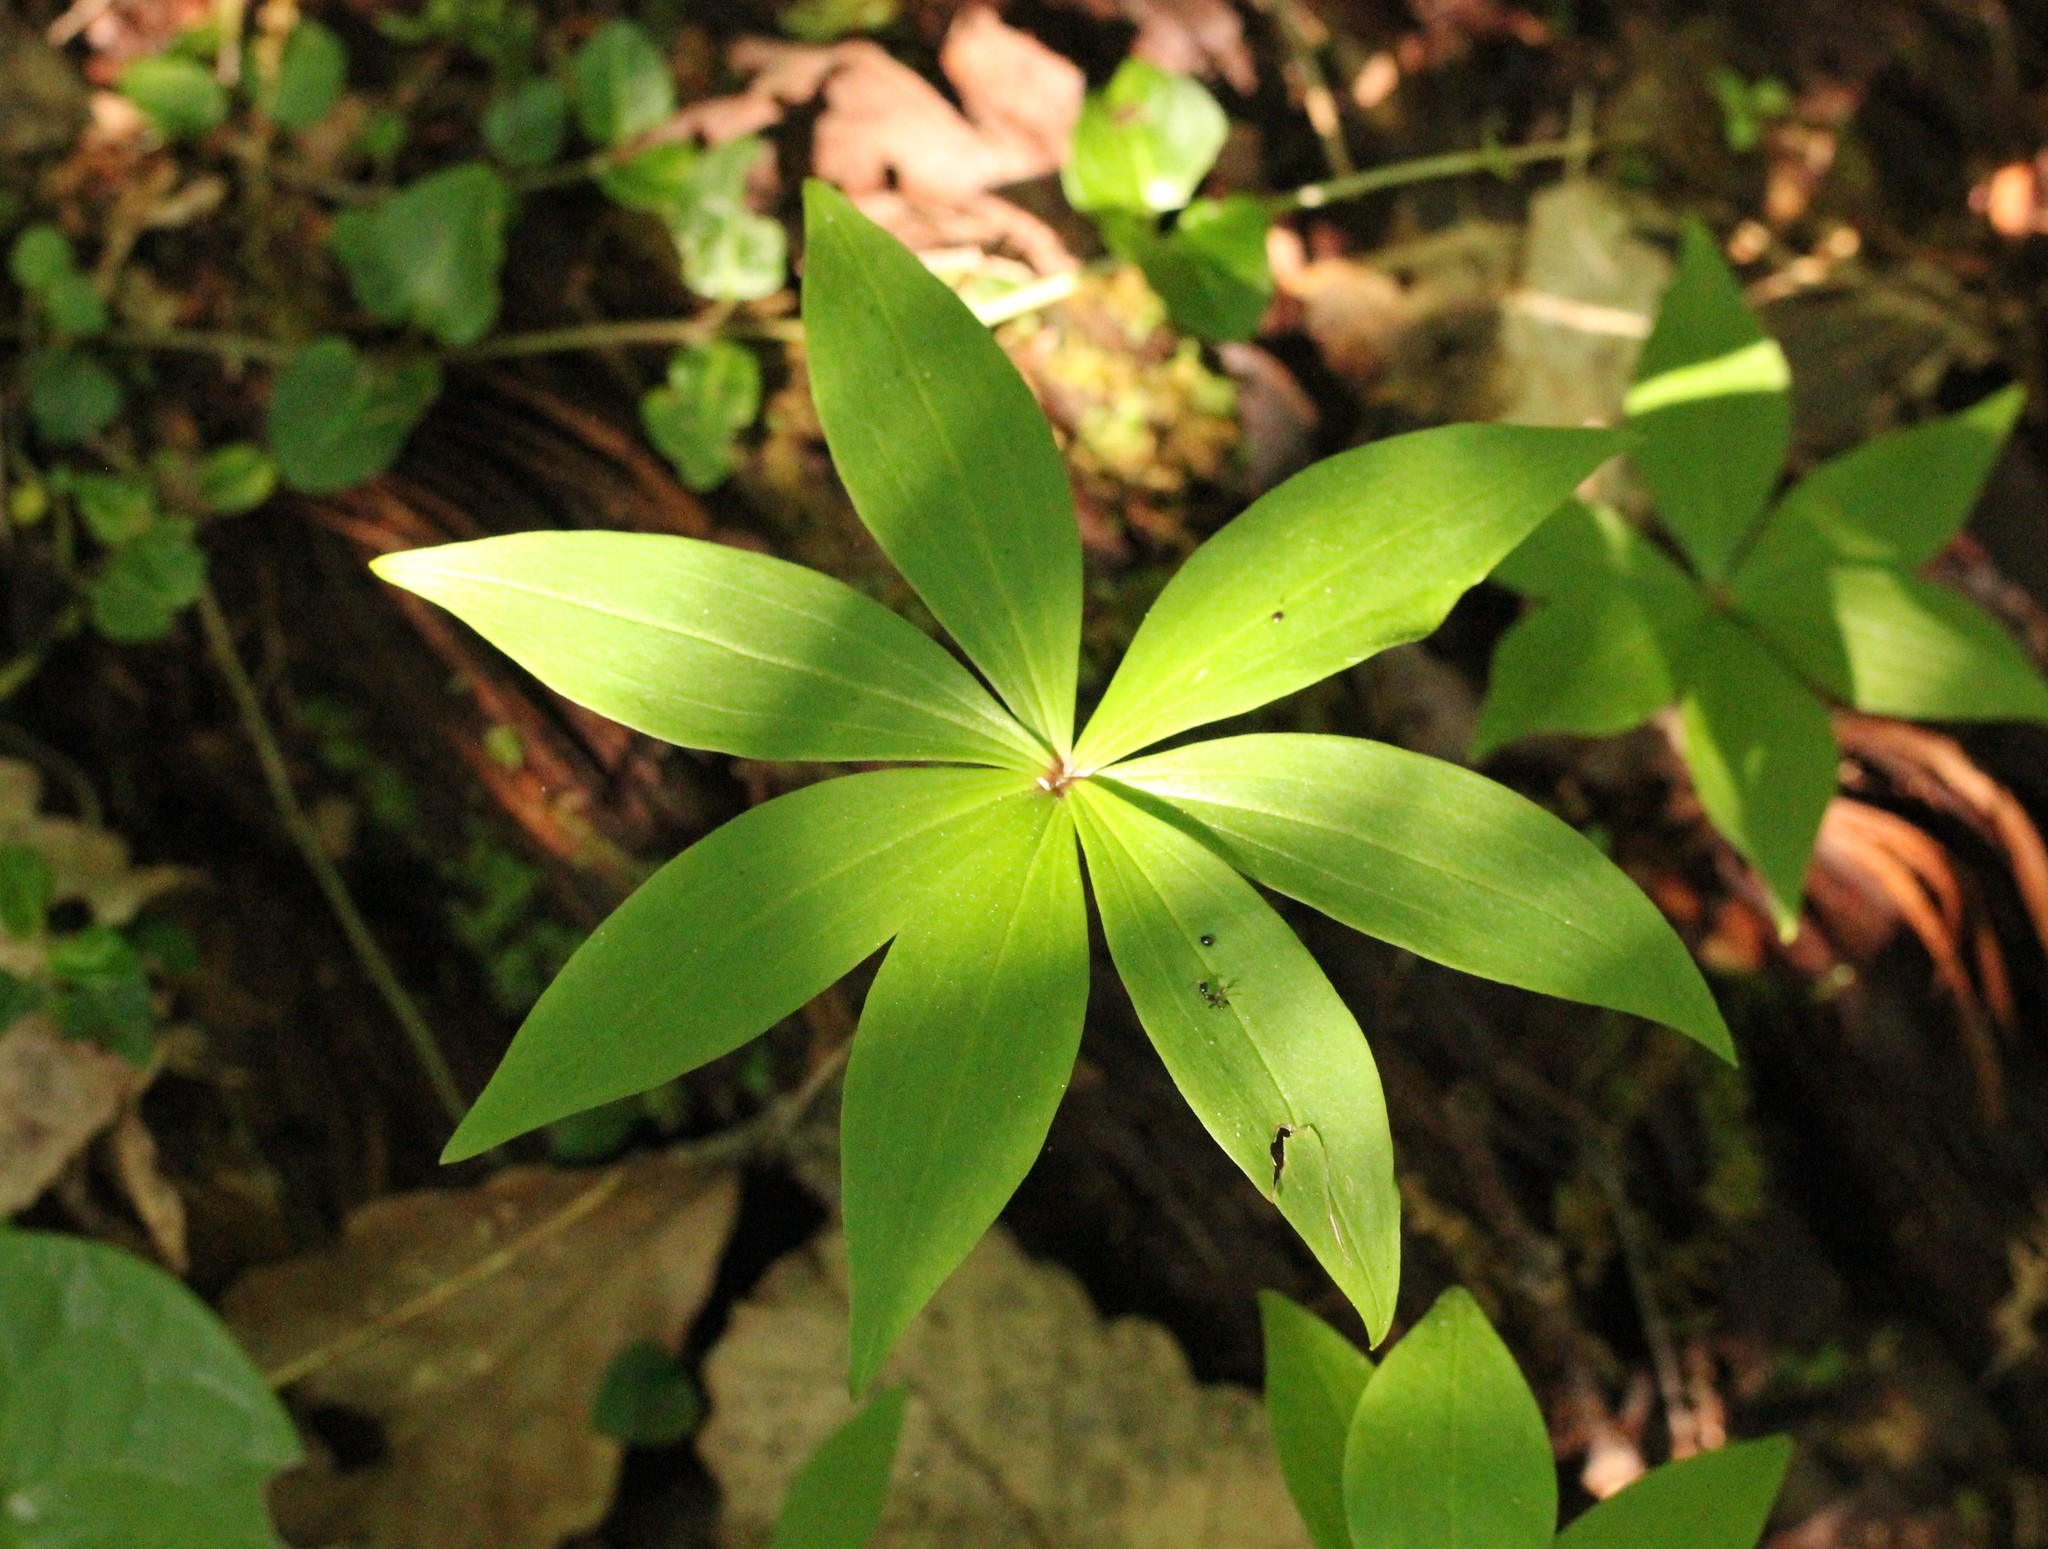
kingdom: Plantae
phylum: Tracheophyta
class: Liliopsida
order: Liliales
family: Liliaceae
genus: Medeola
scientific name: Medeola virginiana
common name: Indian cucumber-root
